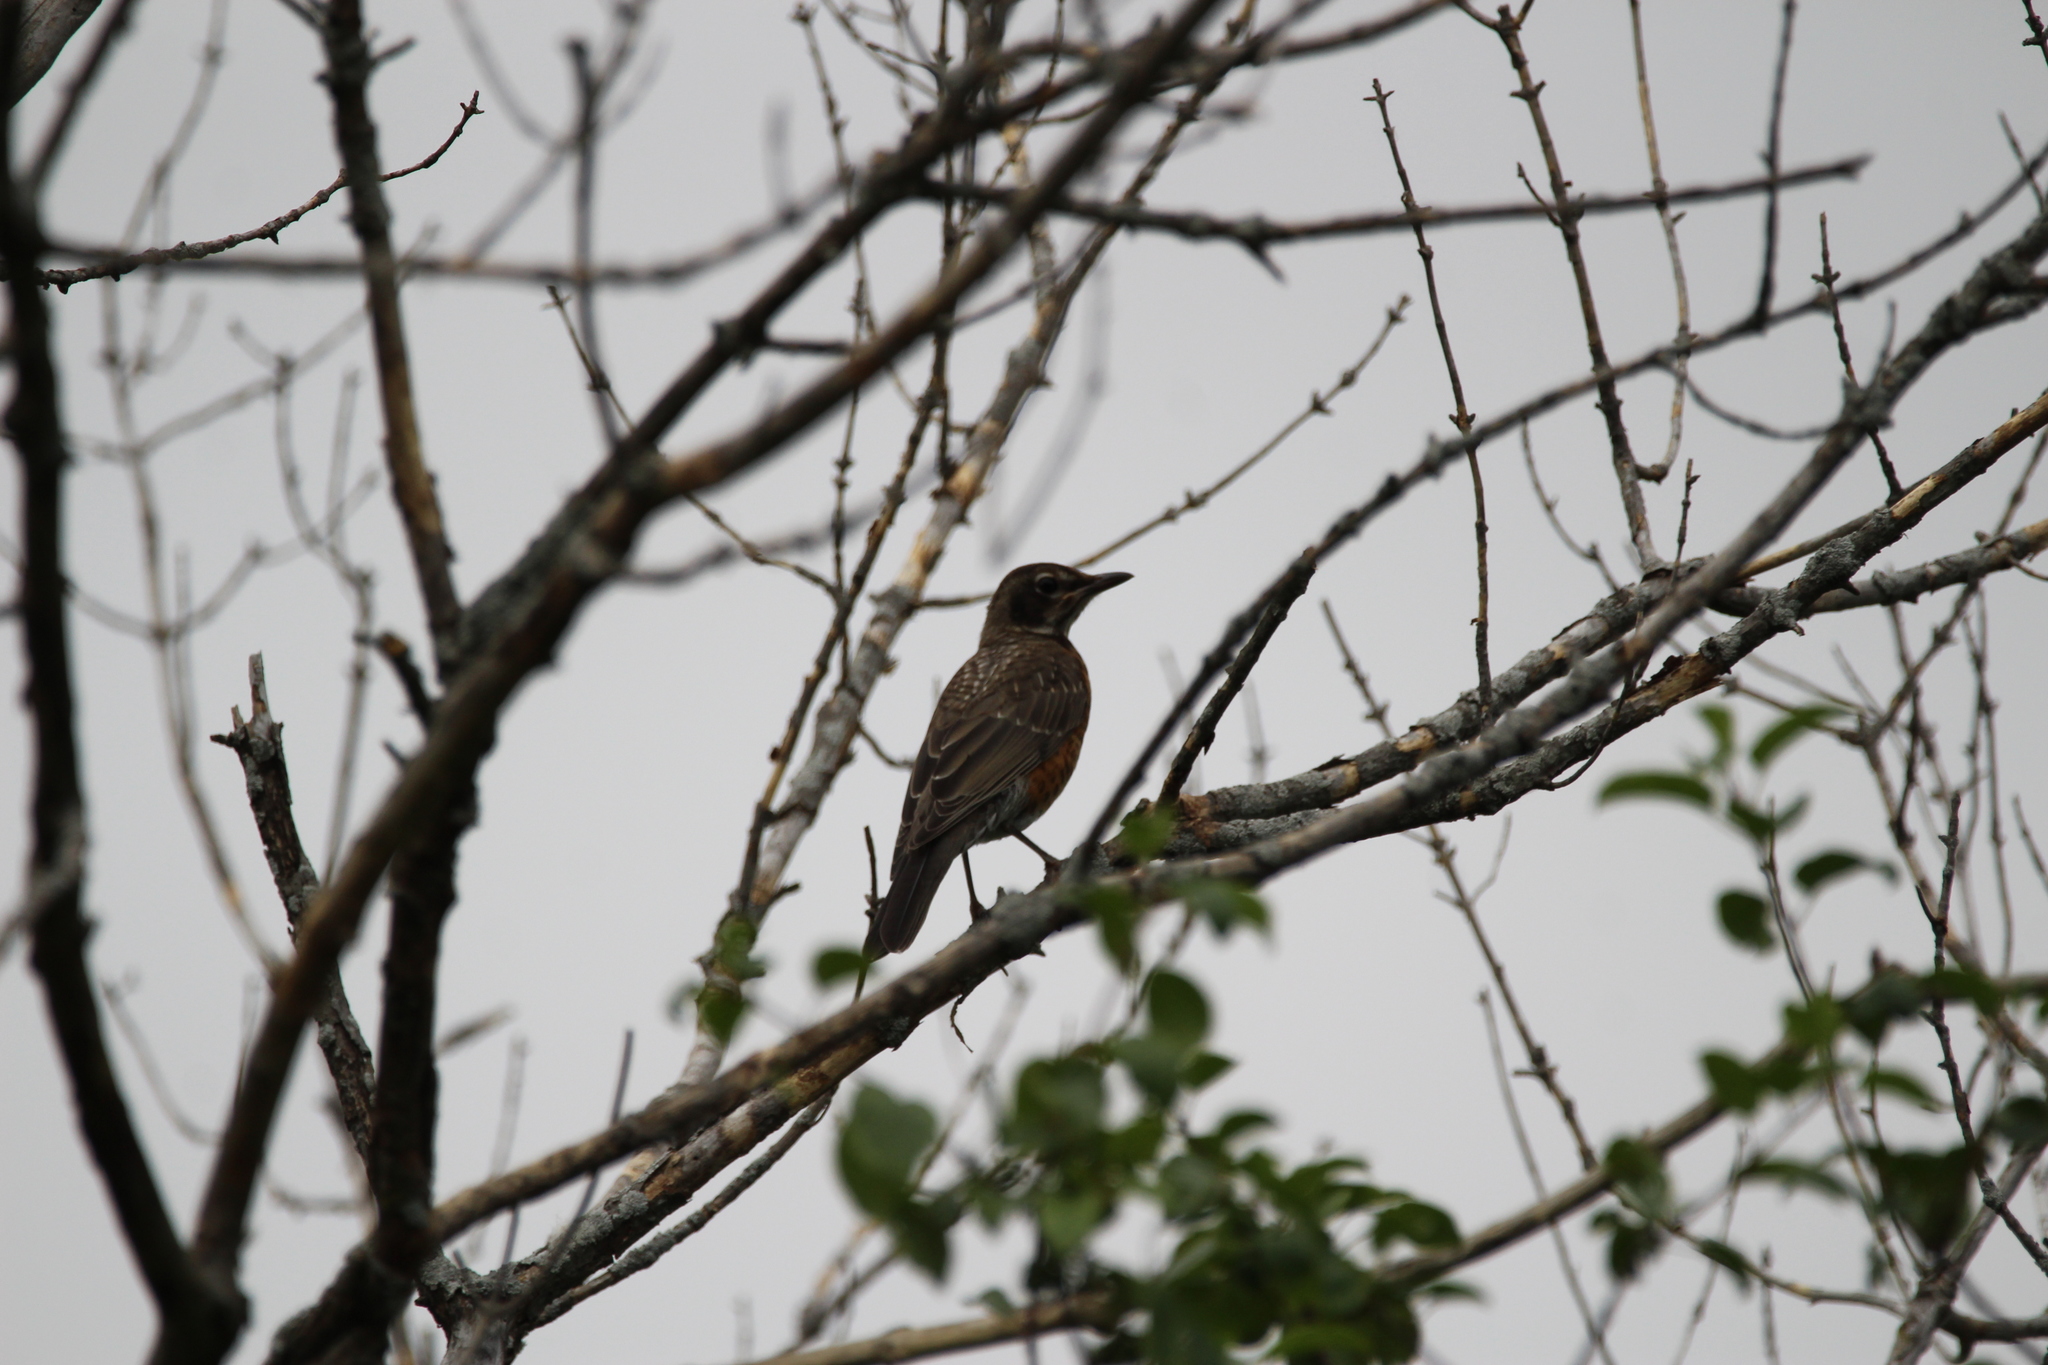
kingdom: Animalia
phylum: Chordata
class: Aves
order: Passeriformes
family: Turdidae
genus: Turdus
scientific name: Turdus migratorius
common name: American robin
